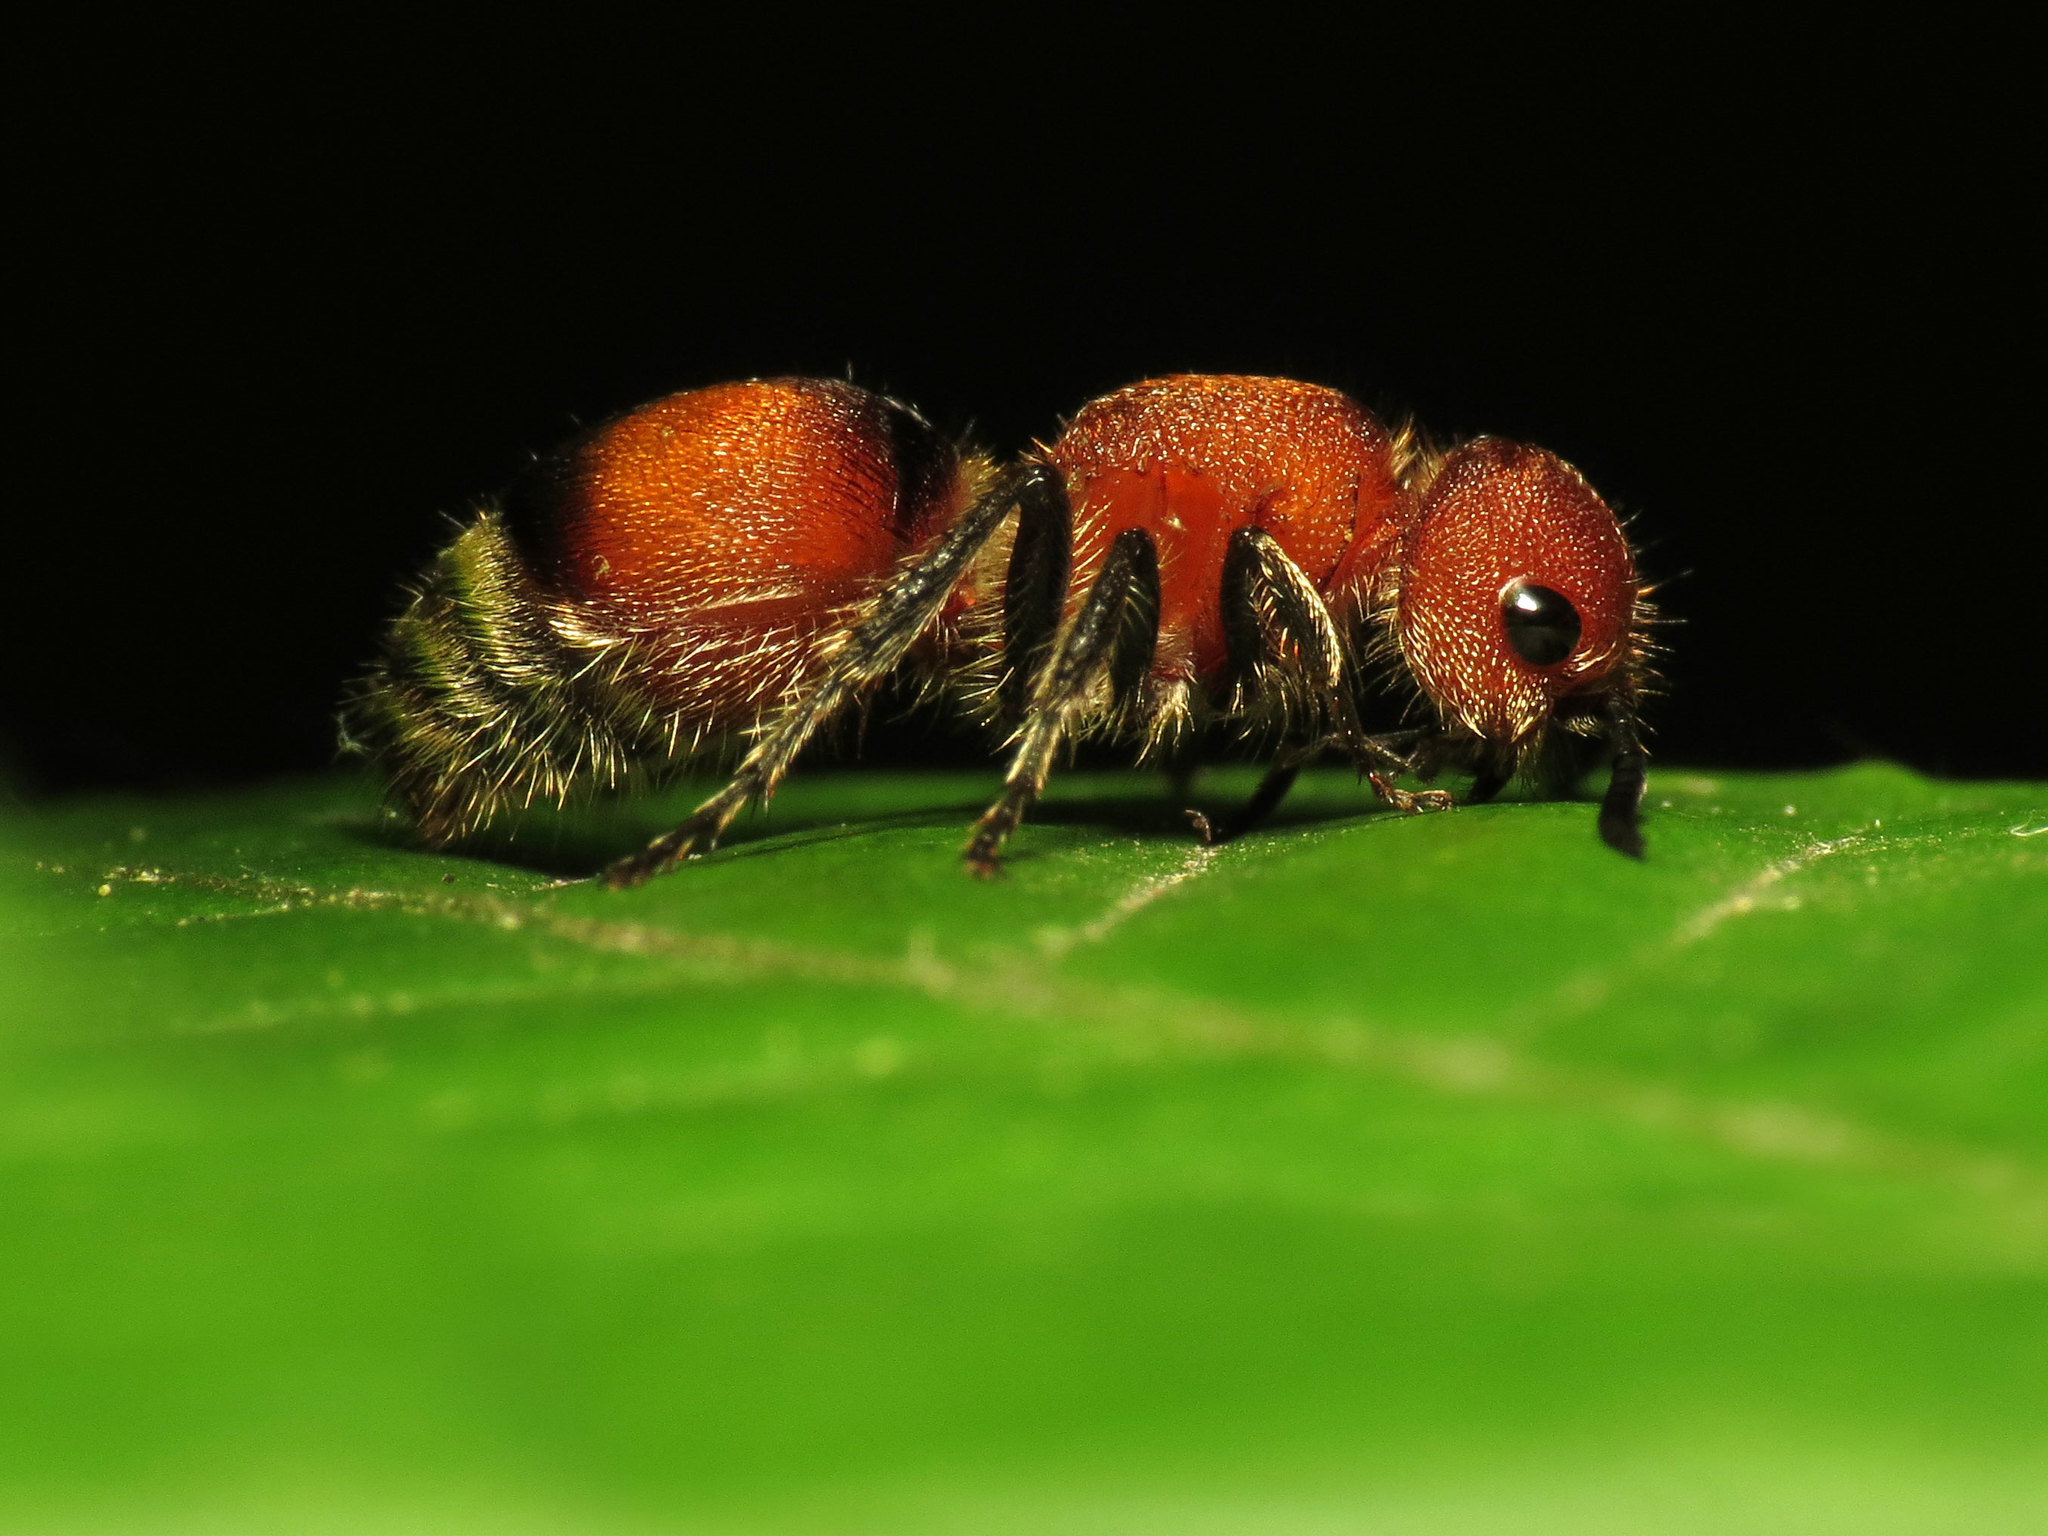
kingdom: Animalia
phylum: Arthropoda
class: Insecta
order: Hymenoptera
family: Mutillidae
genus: Pseudomethoca
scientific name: Pseudomethoca
